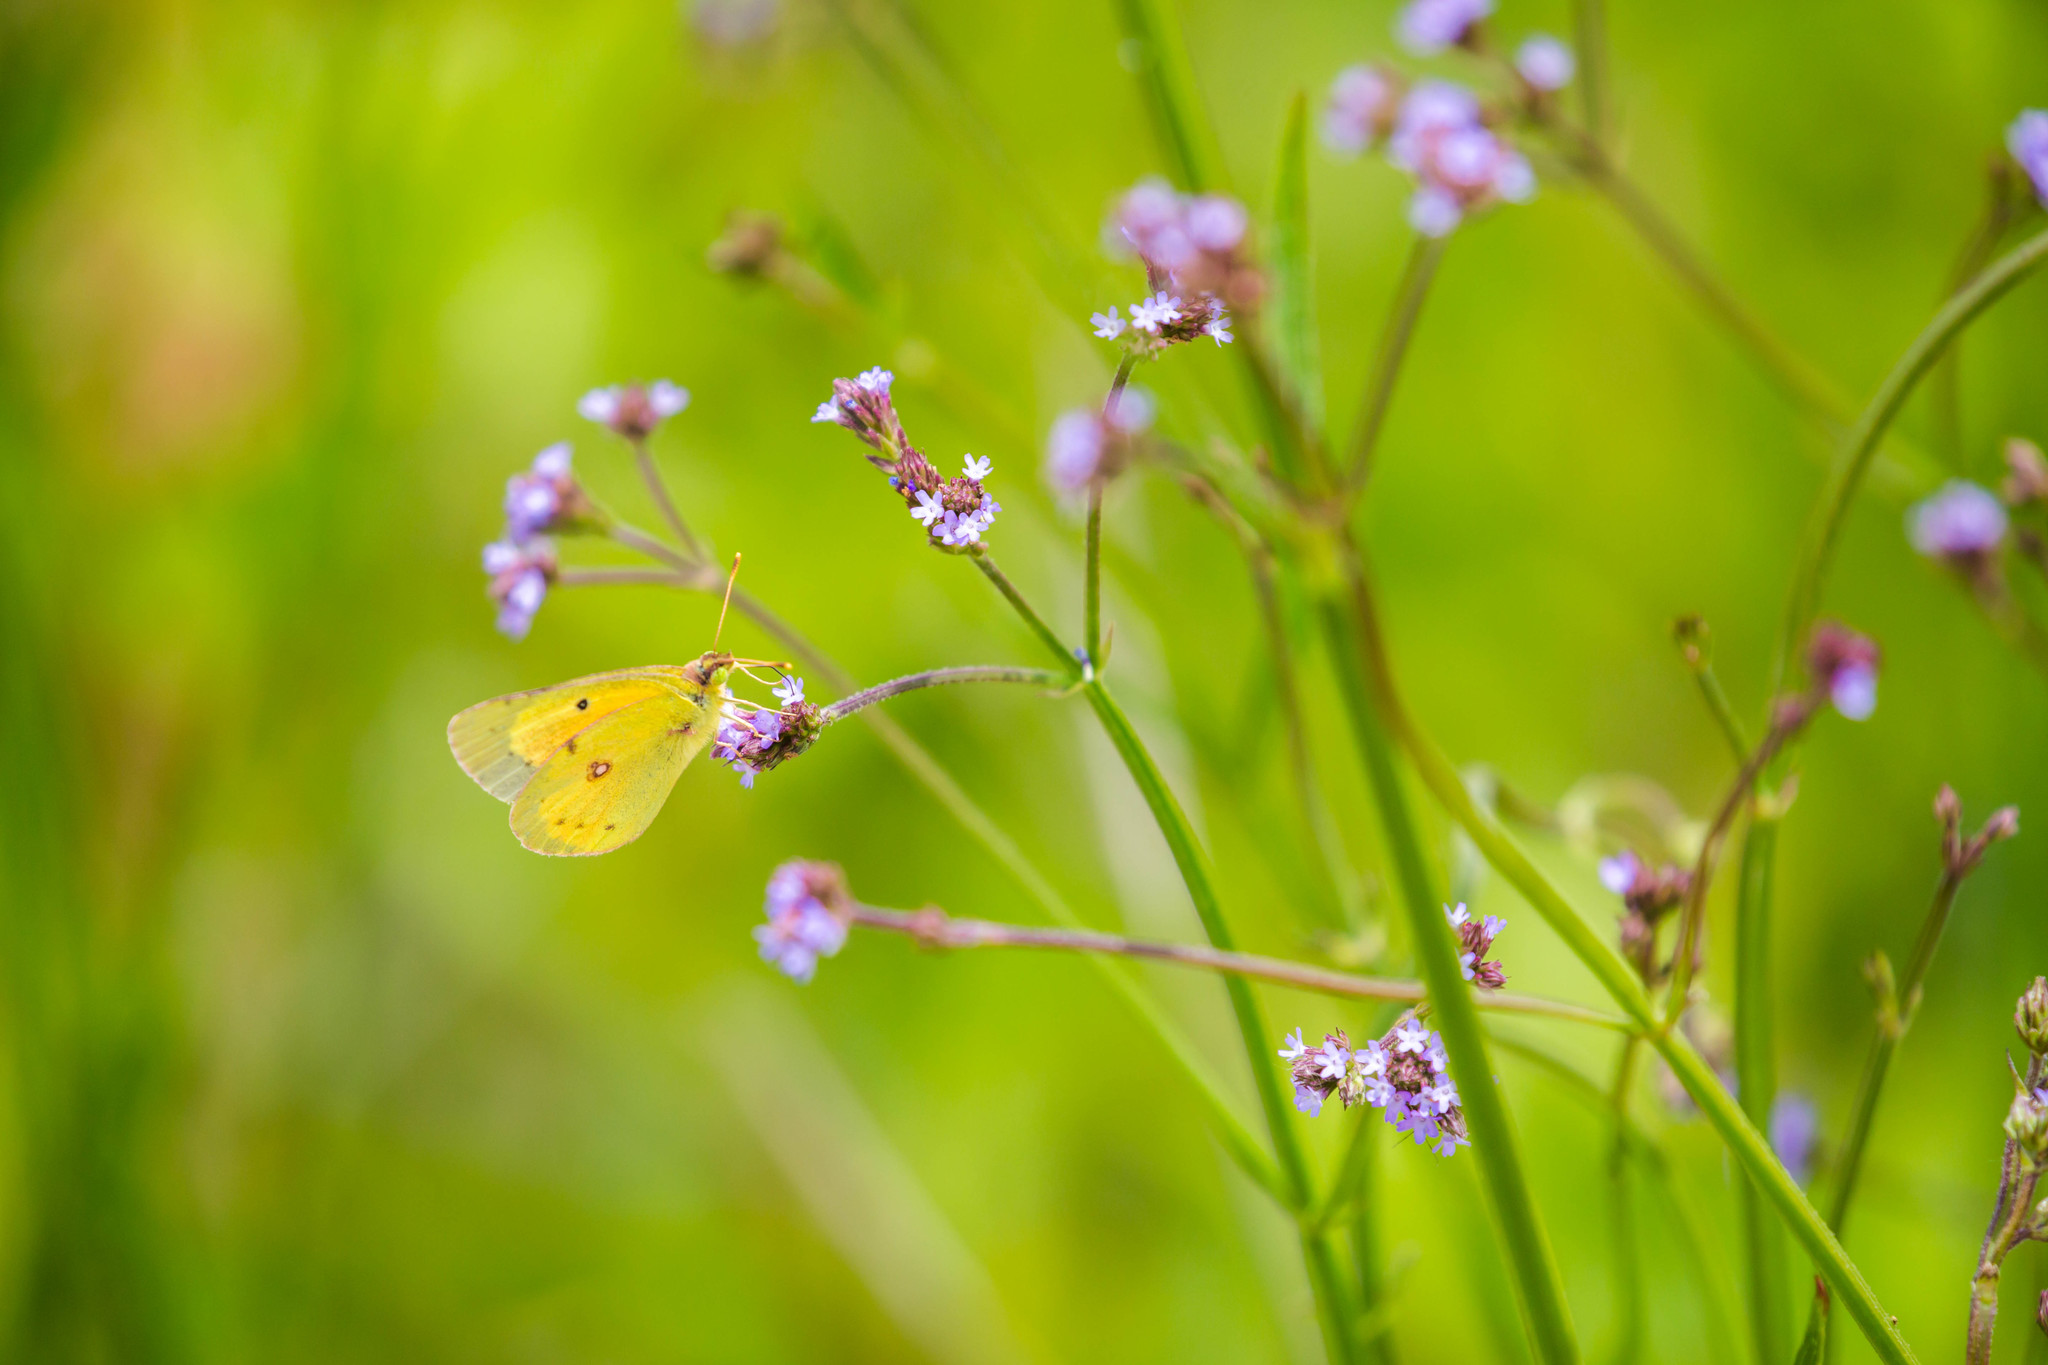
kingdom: Animalia
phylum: Arthropoda
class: Insecta
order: Lepidoptera
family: Pieridae
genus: Colias
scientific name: Colias eurytheme
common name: Alfalfa butterfly
